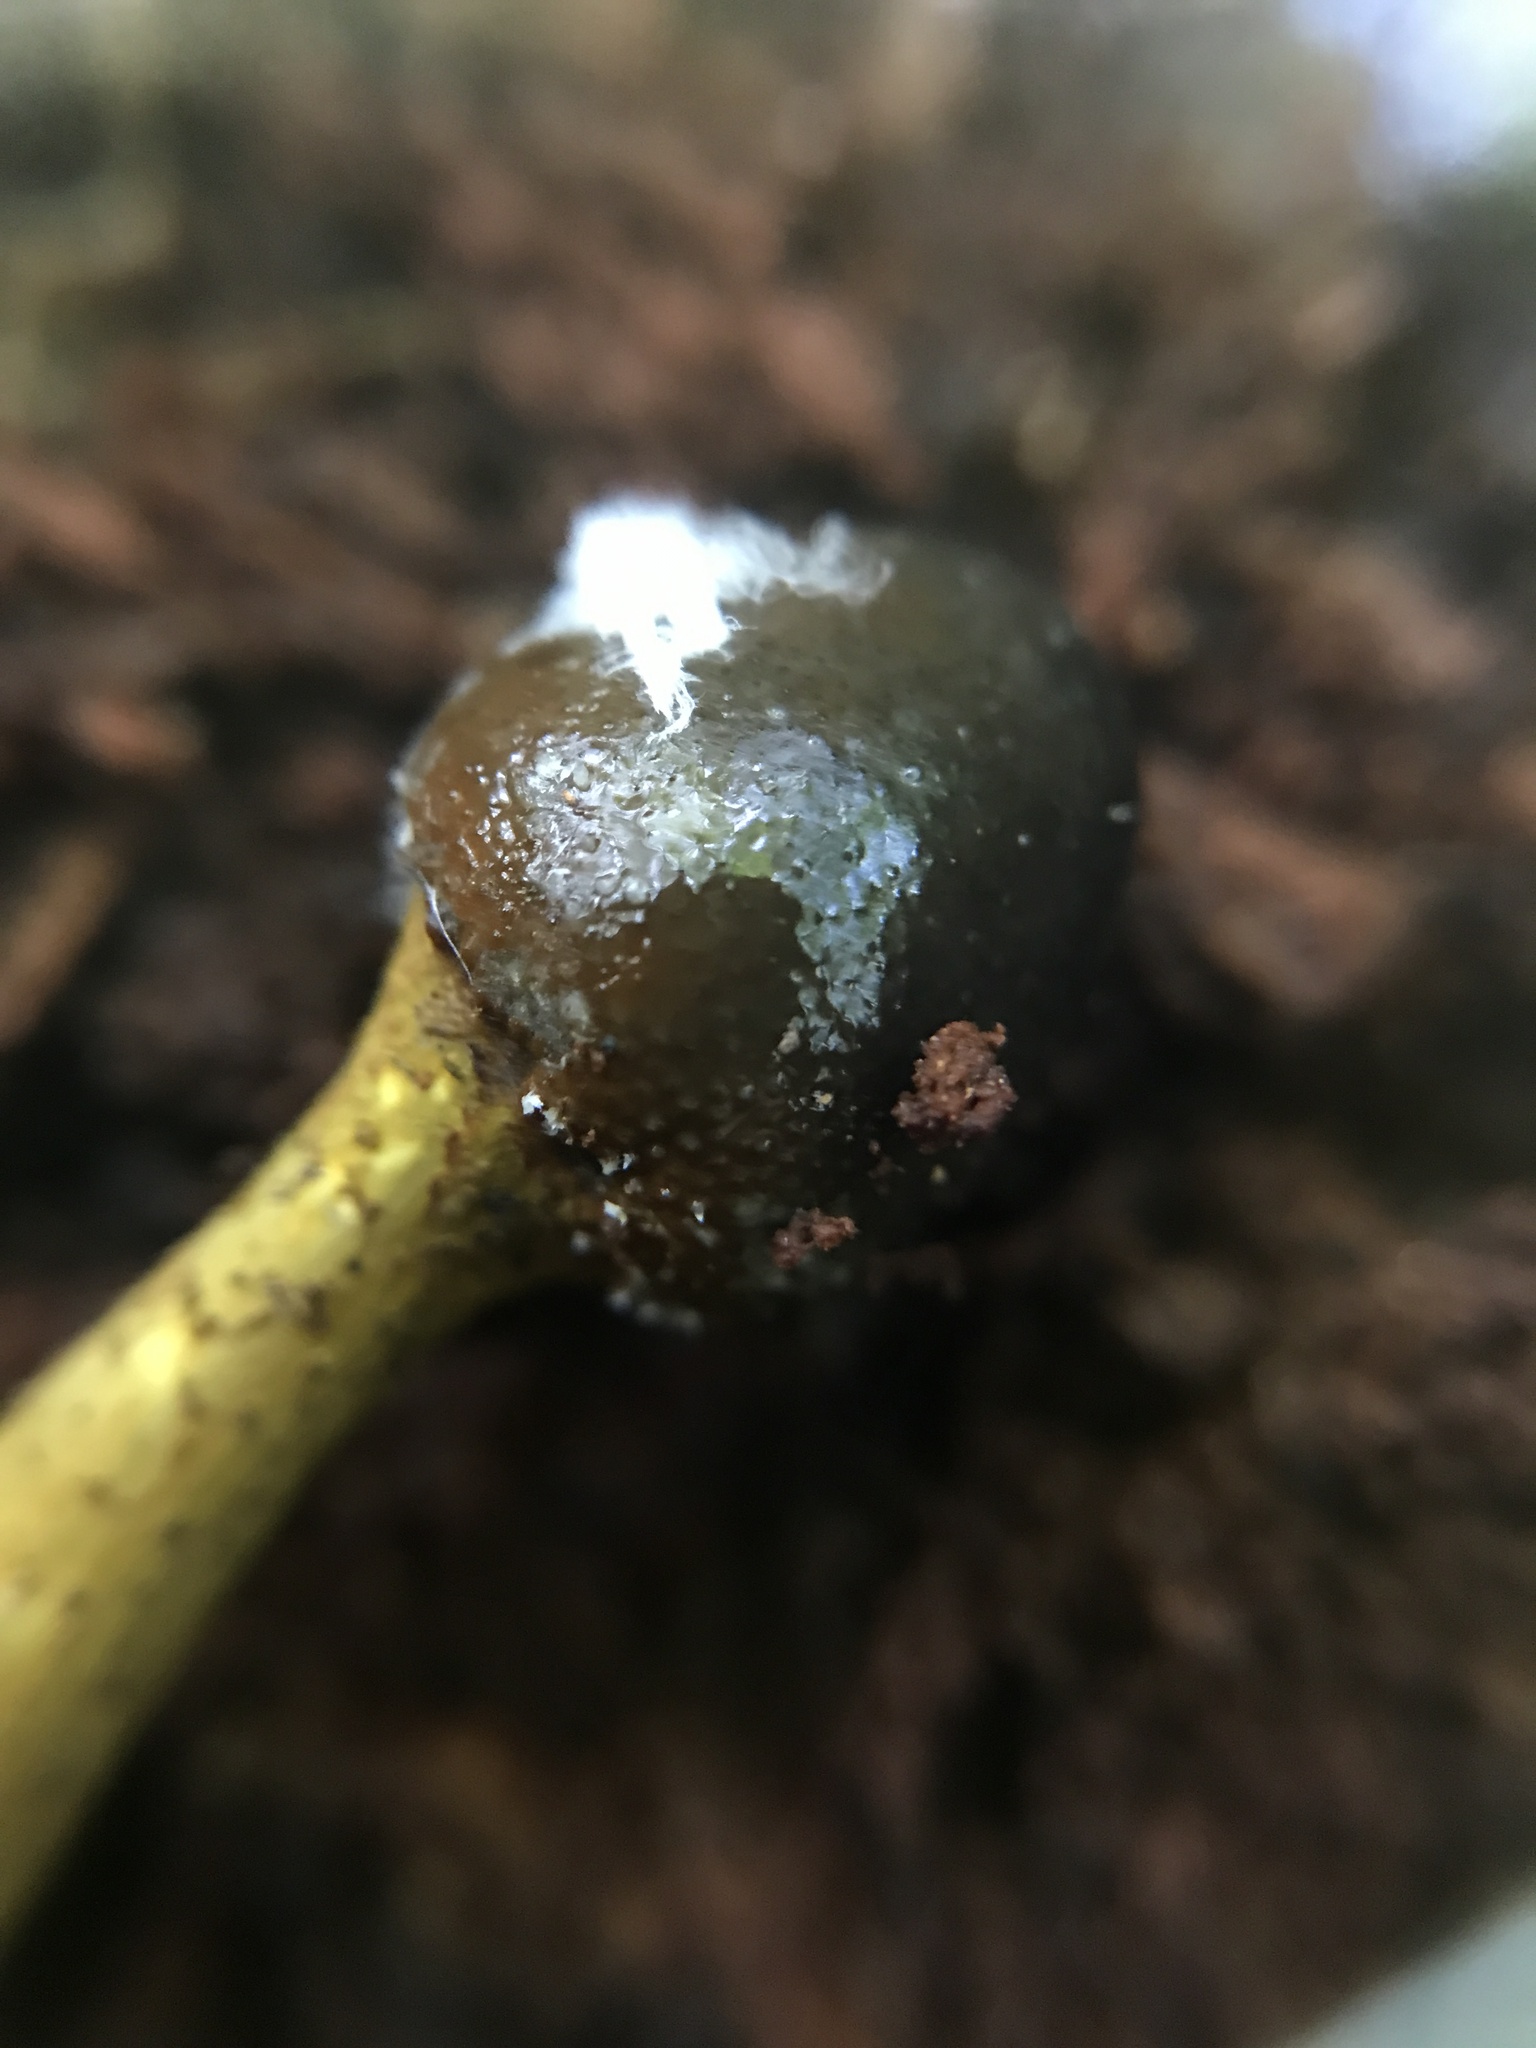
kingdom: Fungi
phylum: Ascomycota
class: Sordariomycetes
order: Hypocreales
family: Ophiocordycipitaceae
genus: Tolypocladium
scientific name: Tolypocladium capitatum
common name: Capitate truffleclub
